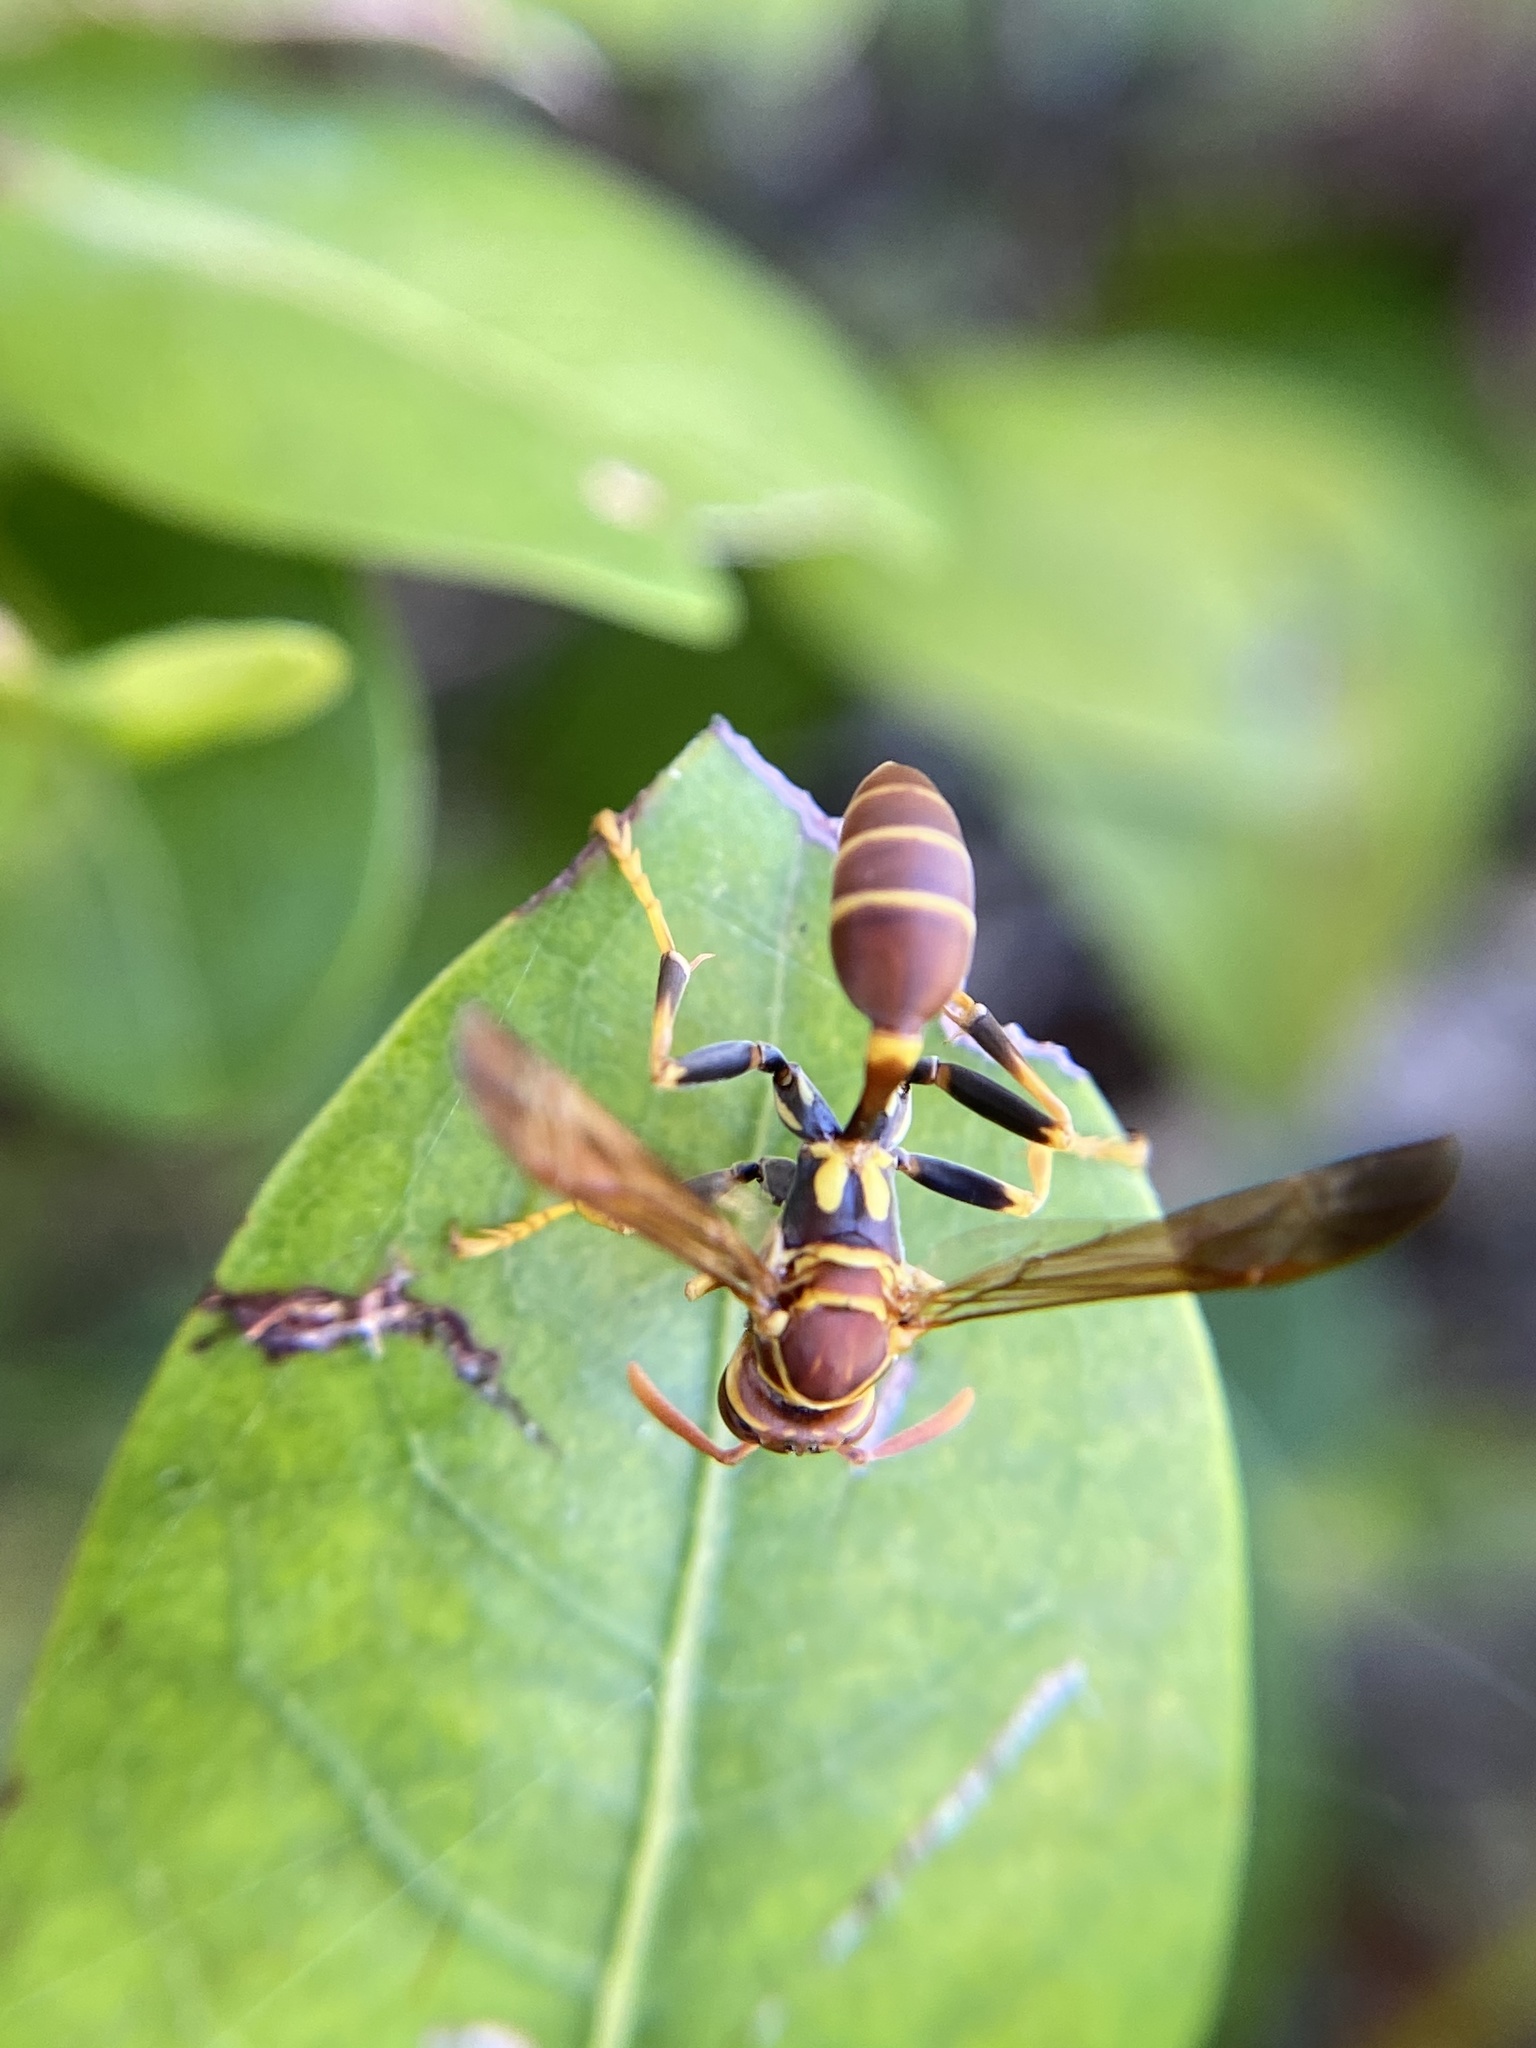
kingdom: Animalia
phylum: Arthropoda
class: Insecta
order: Hymenoptera
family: Vespidae
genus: Mischocyttarus
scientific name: Mischocyttarus mexicanus
